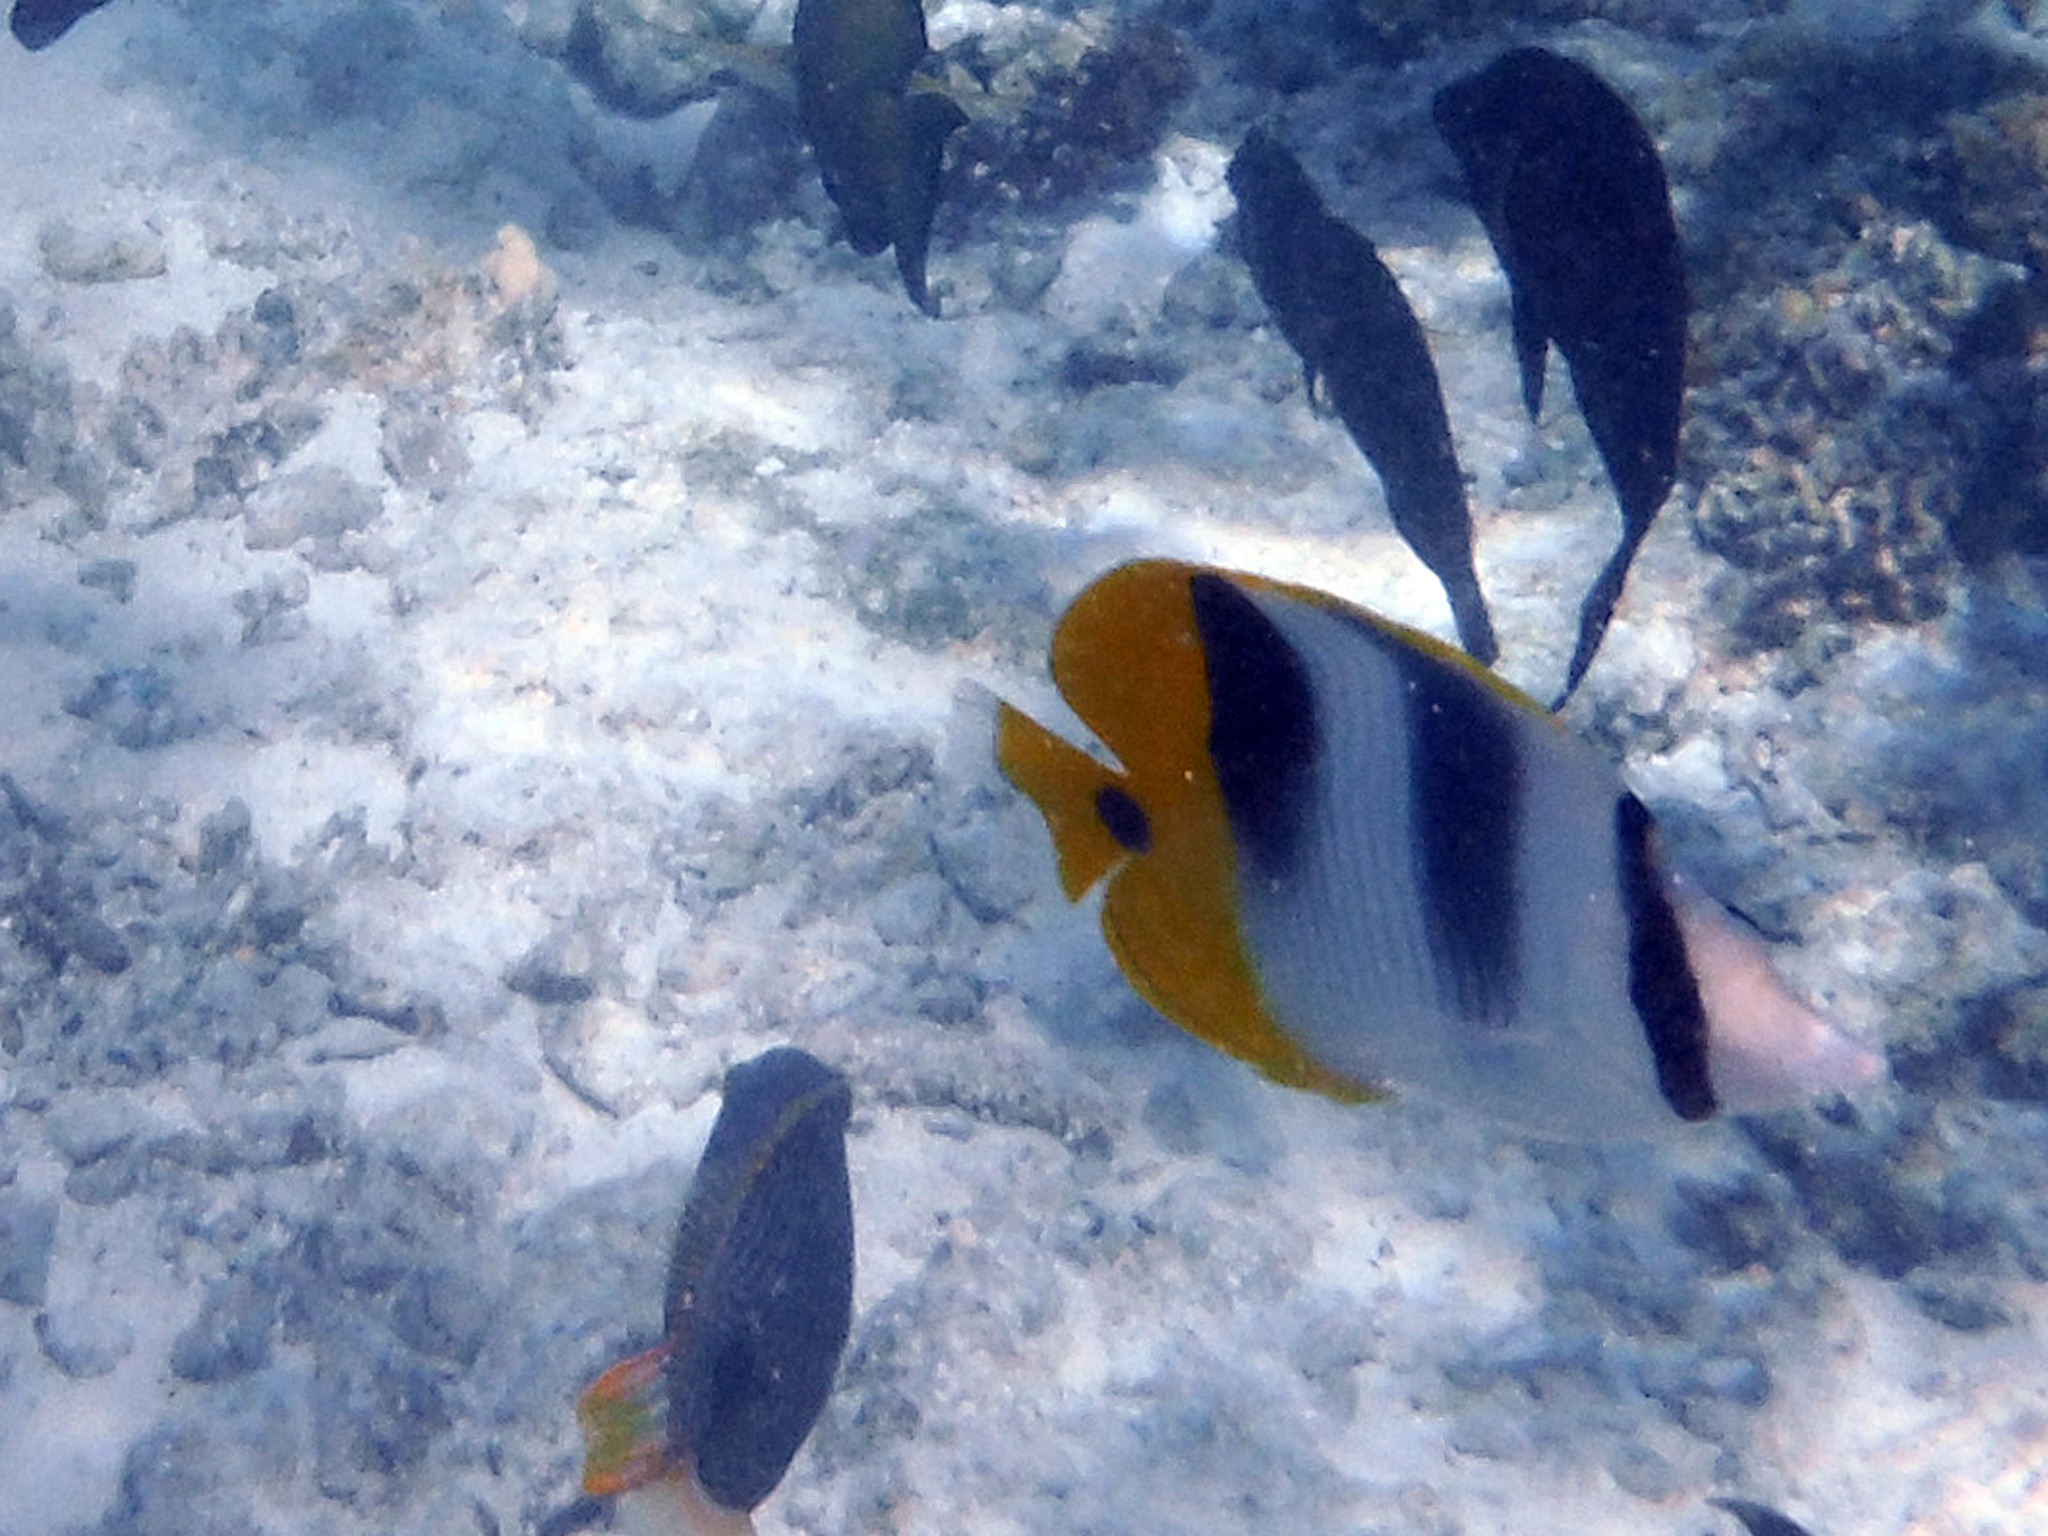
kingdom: Animalia
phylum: Chordata
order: Perciformes
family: Chaetodontidae
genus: Chaetodon
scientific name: Chaetodon ulietensis
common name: Pacific double-saddle butterflyfish
